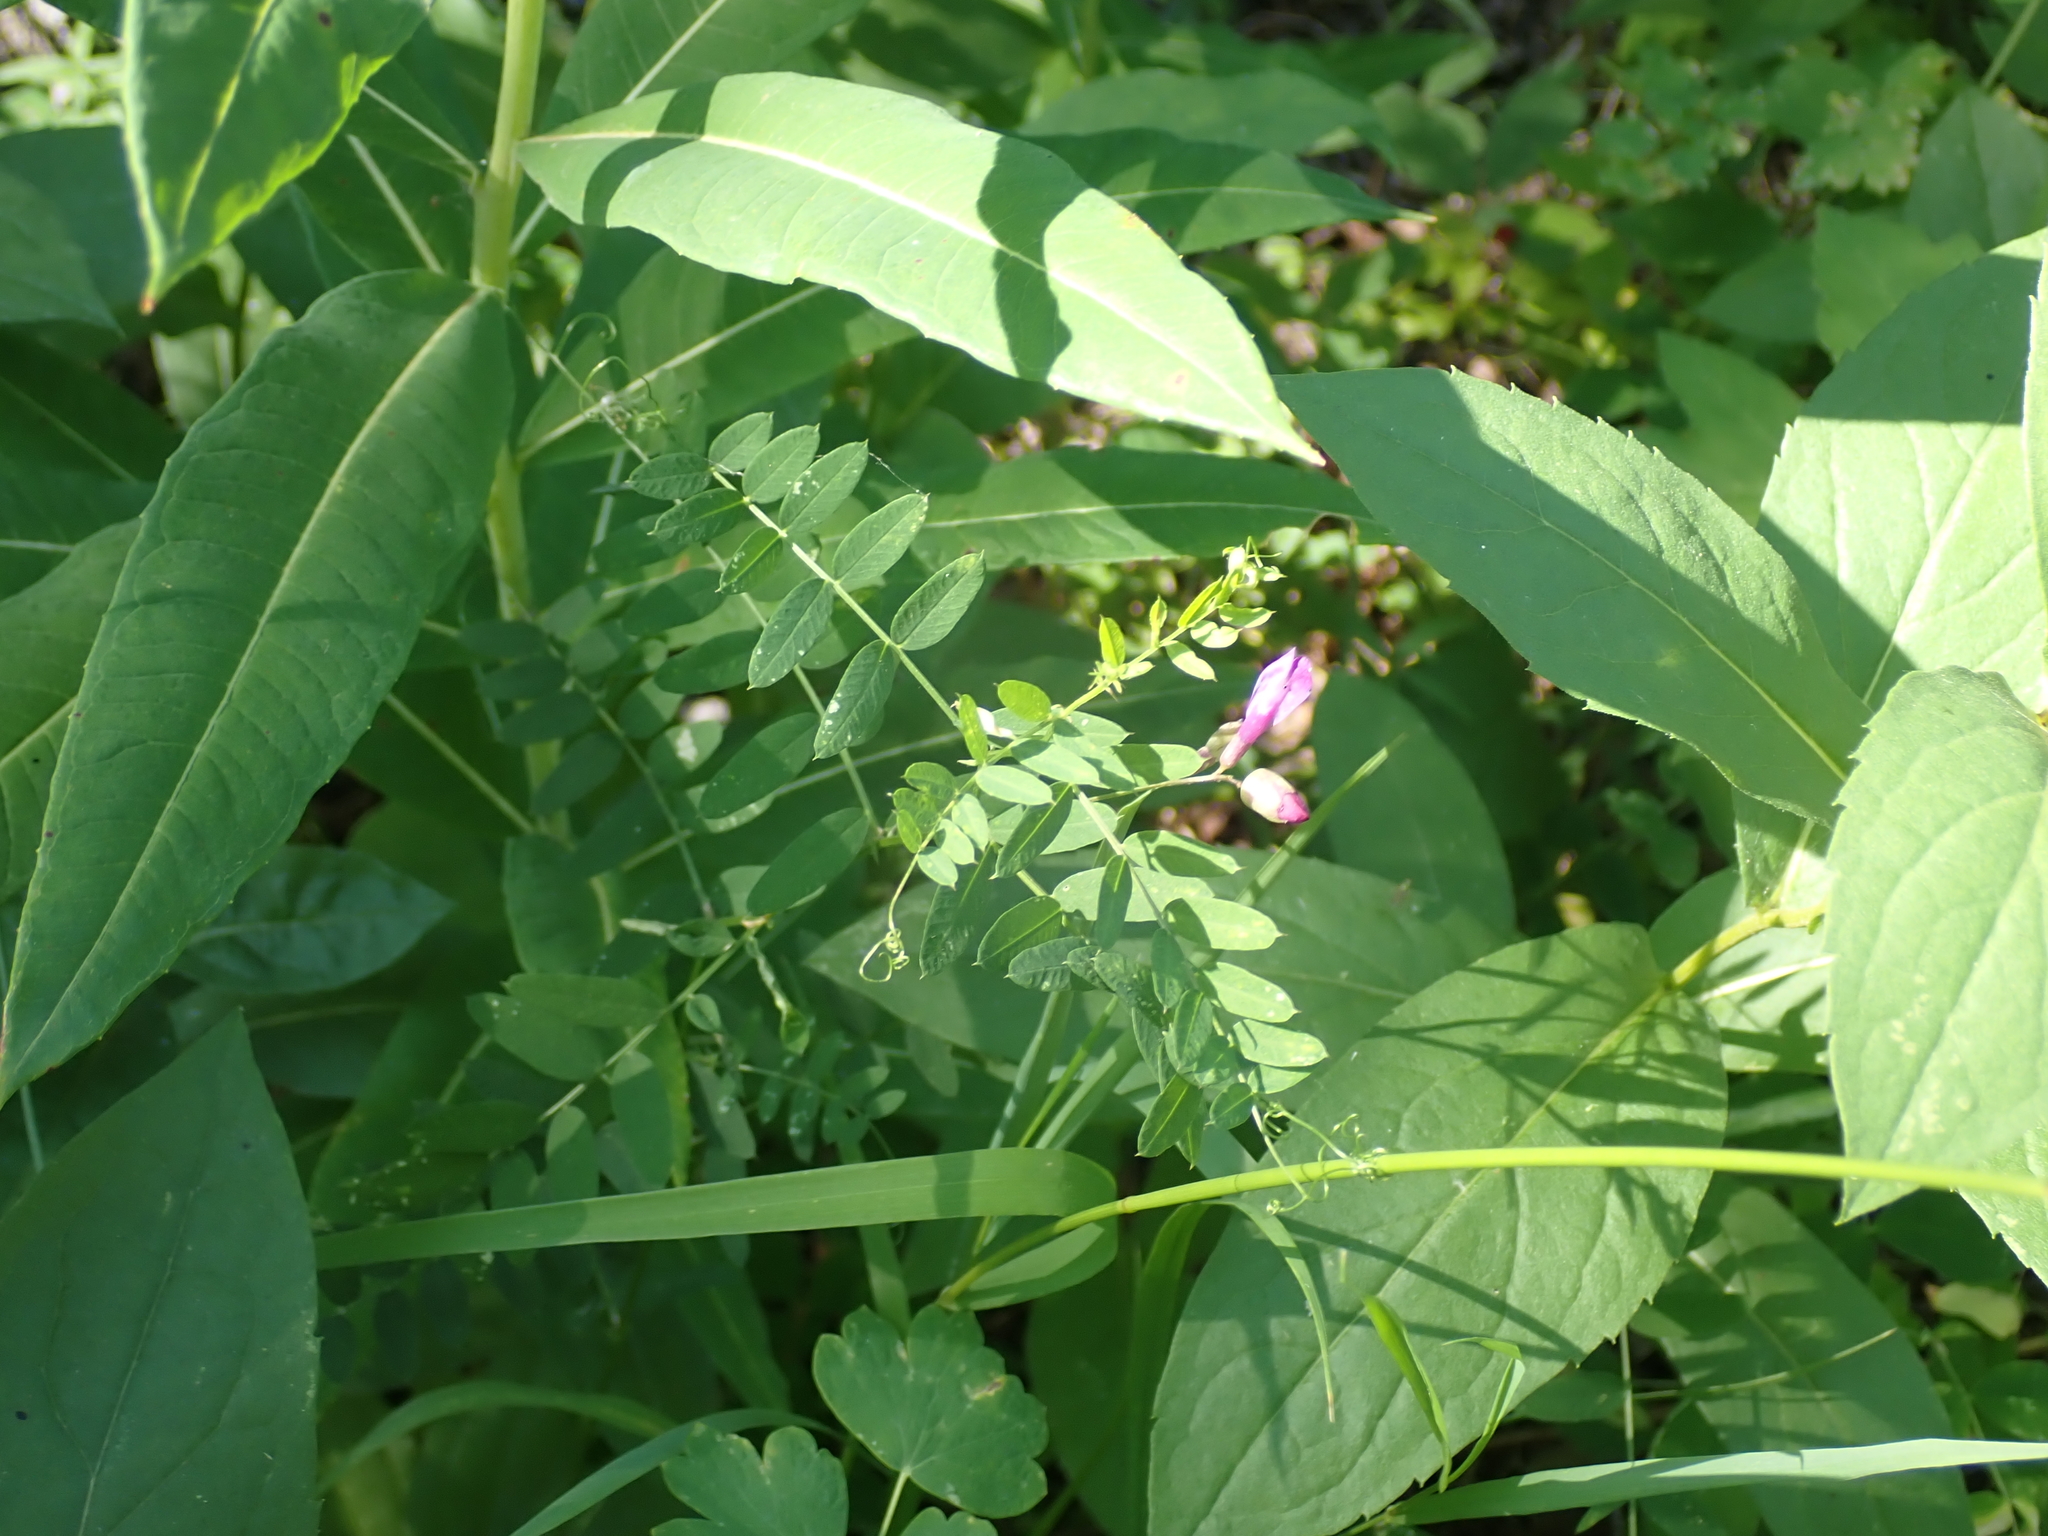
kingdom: Plantae
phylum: Tracheophyta
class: Magnoliopsida
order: Fabales
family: Fabaceae
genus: Vicia
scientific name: Vicia americana
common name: American vetch
